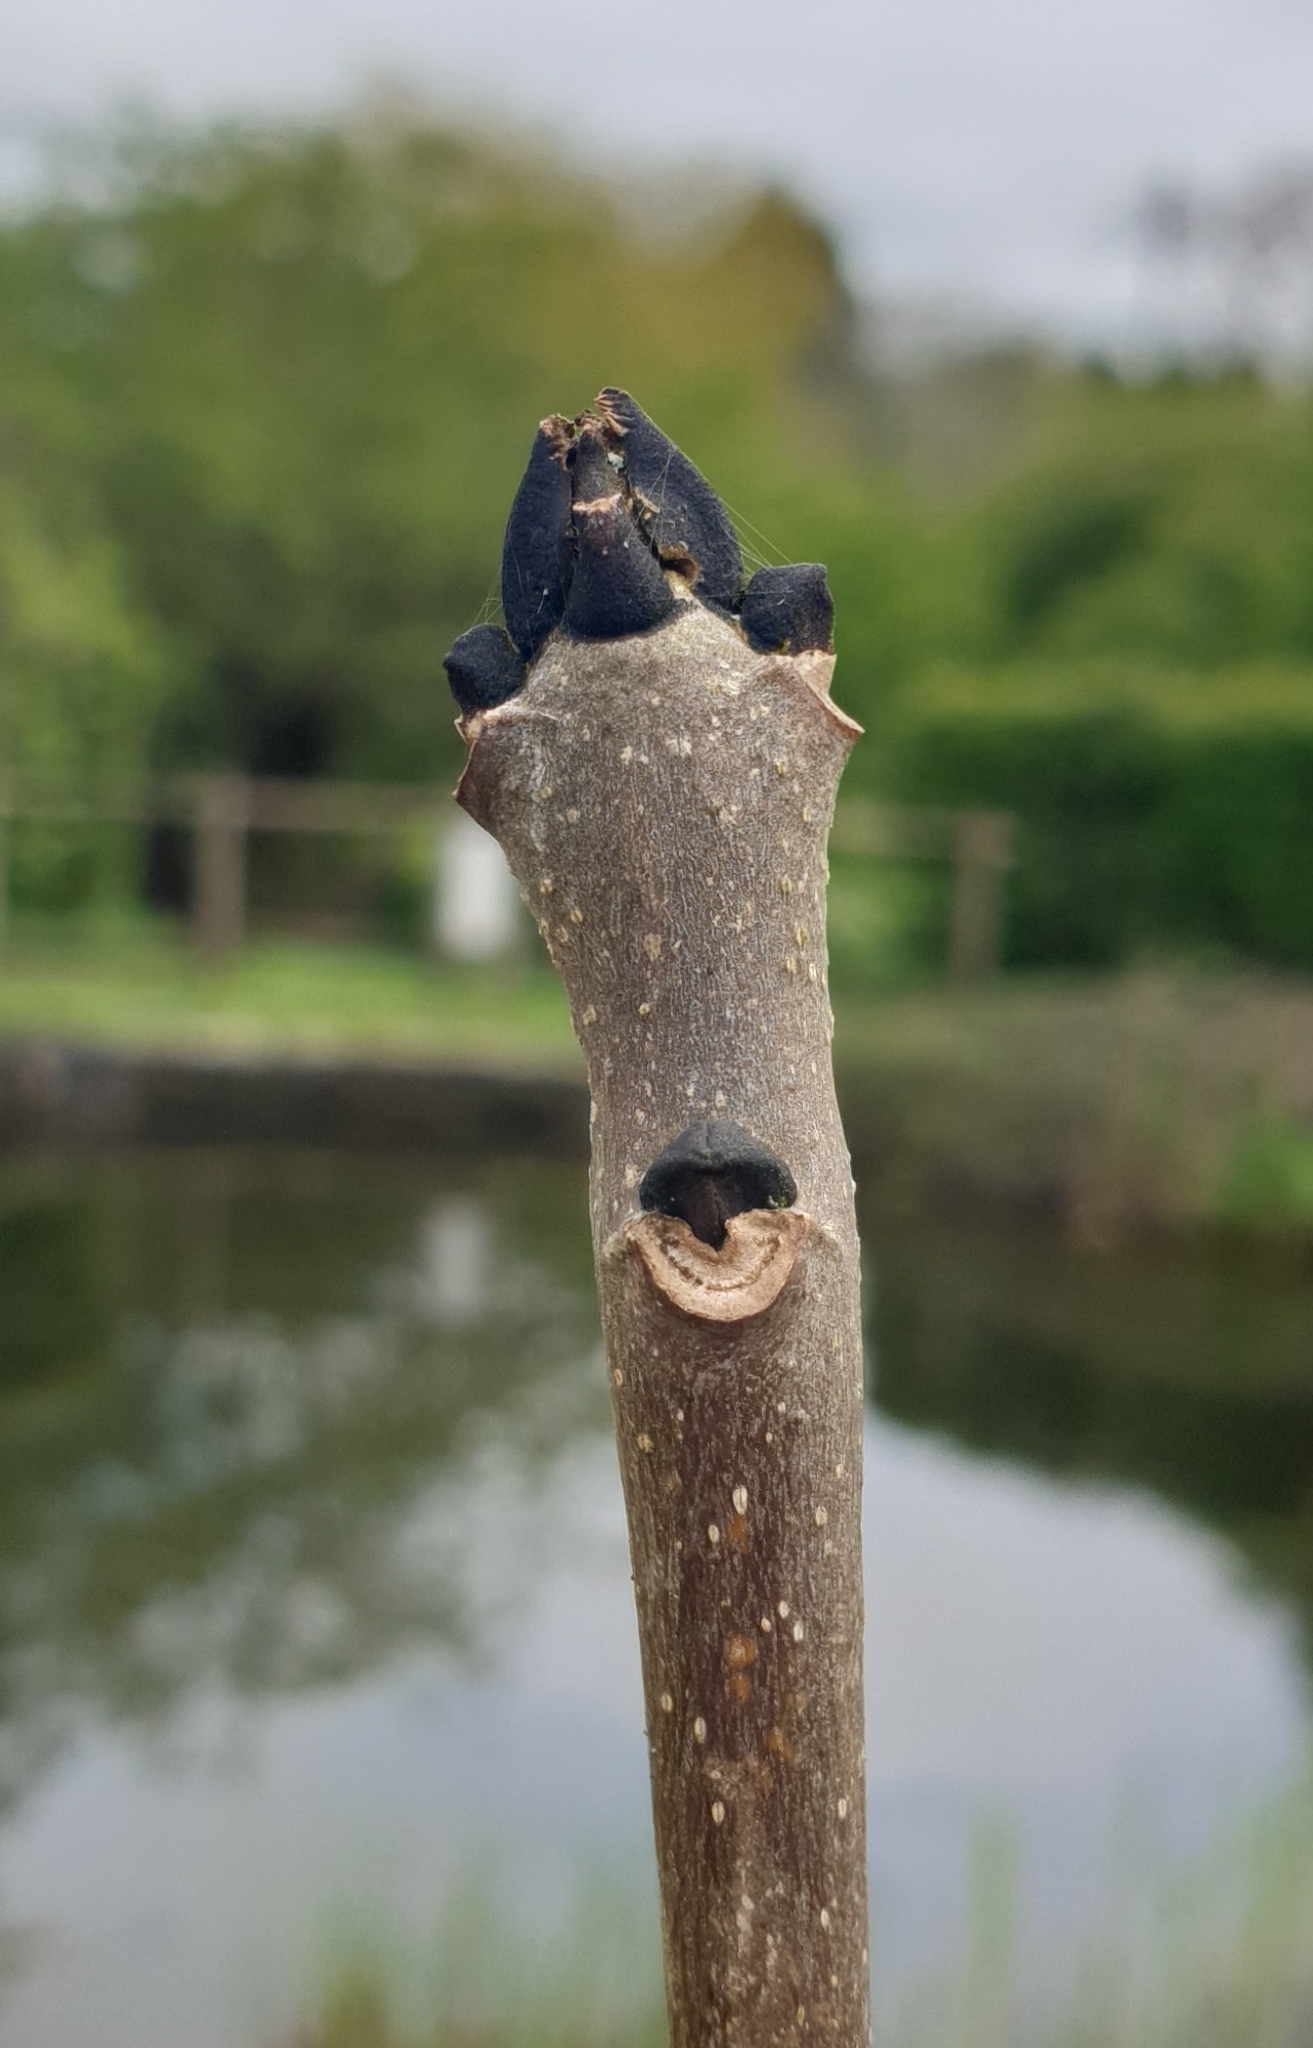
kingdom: Plantae
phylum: Tracheophyta
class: Magnoliopsida
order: Lamiales
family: Oleaceae
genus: Fraxinus
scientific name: Fraxinus excelsior
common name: European ash
